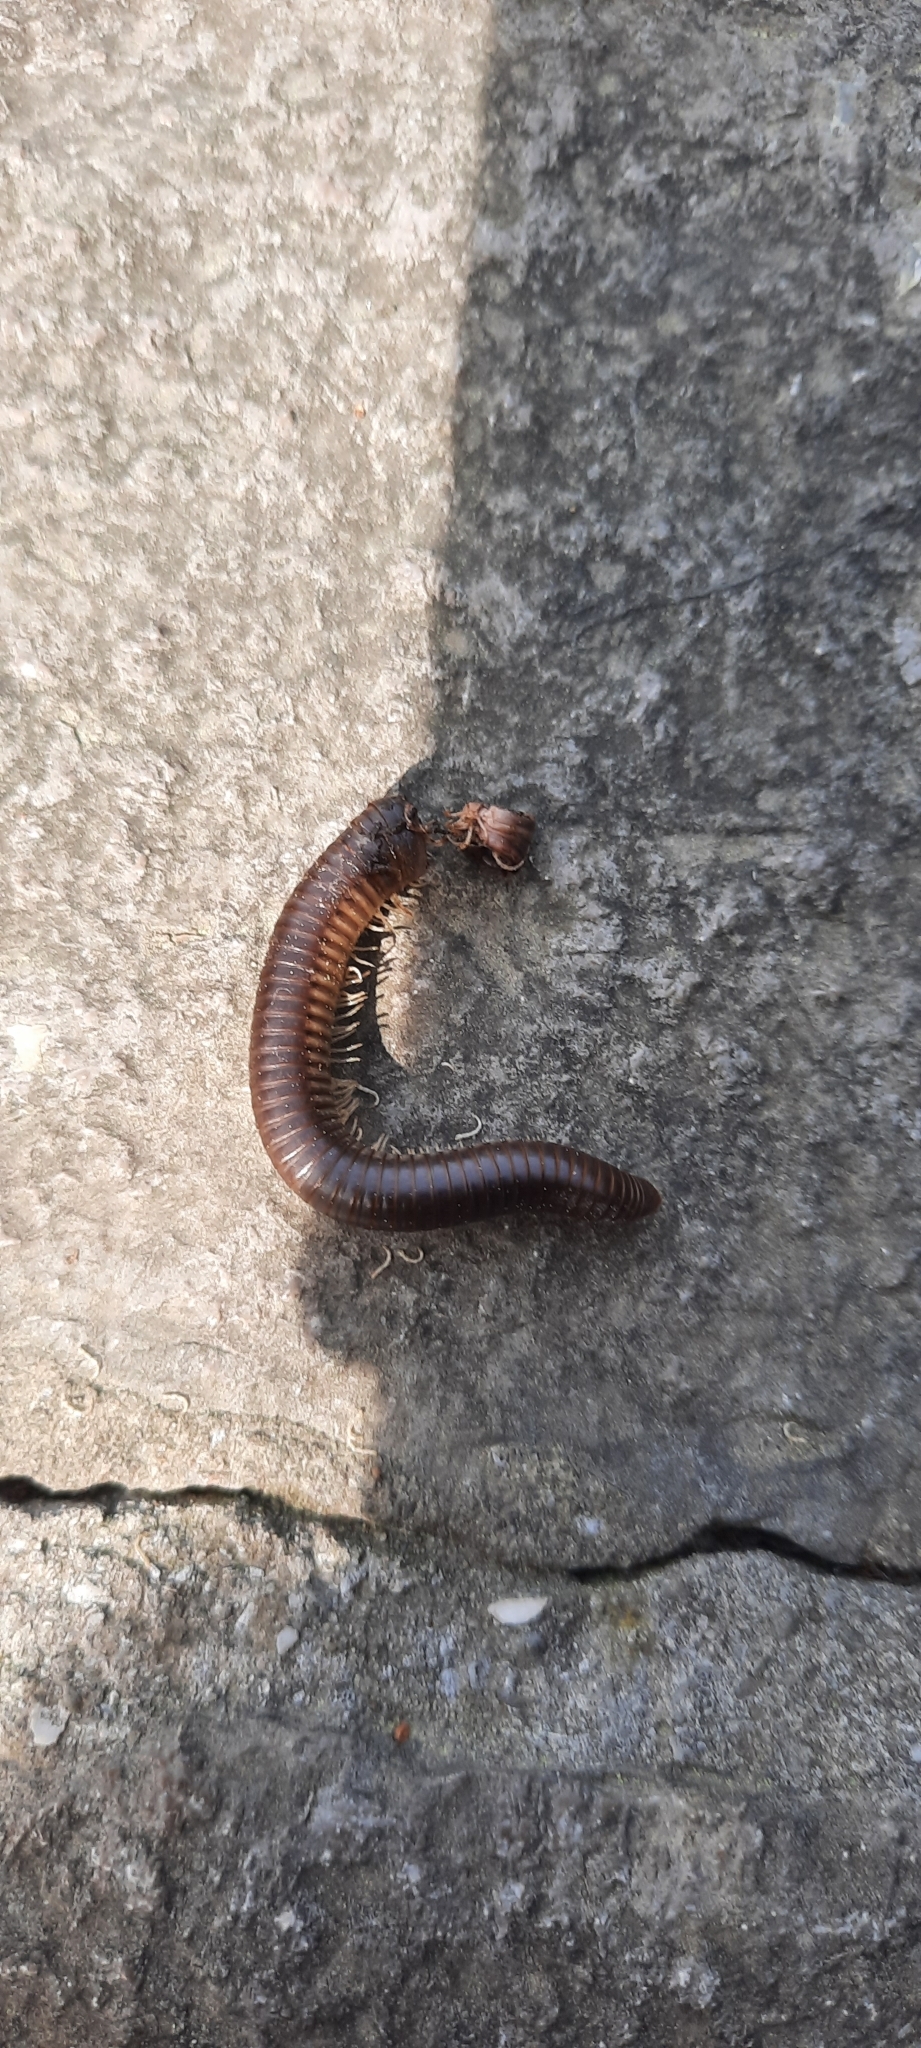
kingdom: Animalia
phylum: Arthropoda
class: Diplopoda
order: Julida
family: Julidae
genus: Pachyiulus
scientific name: Pachyiulus flavipes
